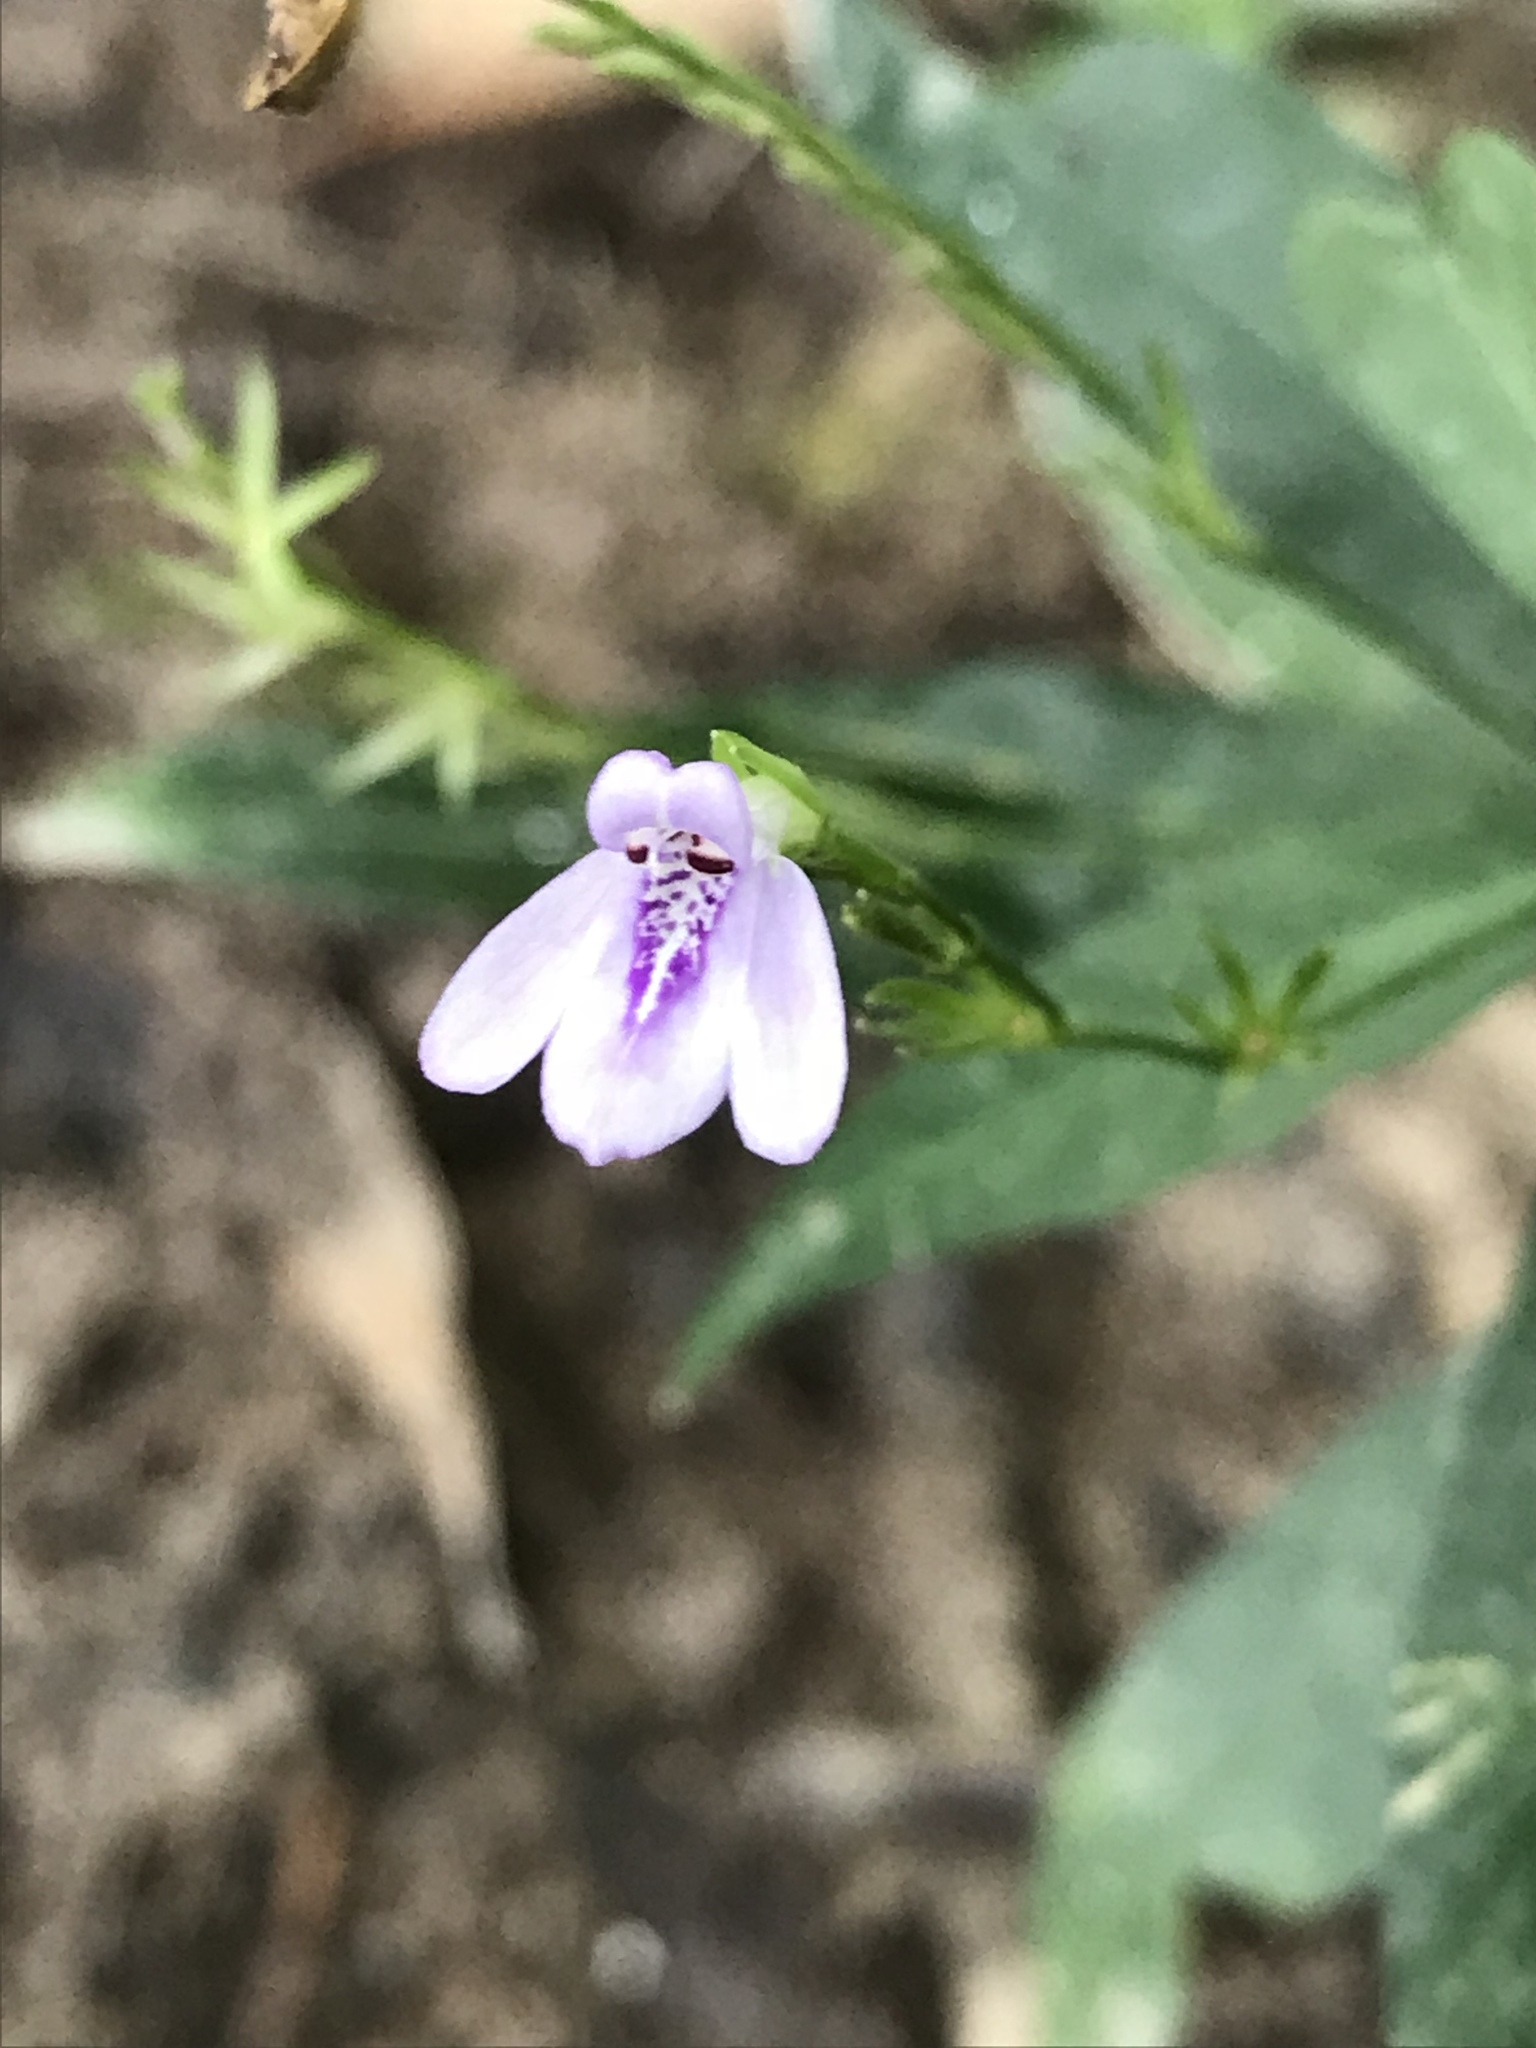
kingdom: Plantae
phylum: Tracheophyta
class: Magnoliopsida
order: Lamiales
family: Acanthaceae
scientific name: Acanthaceae
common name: Acanthaceae
